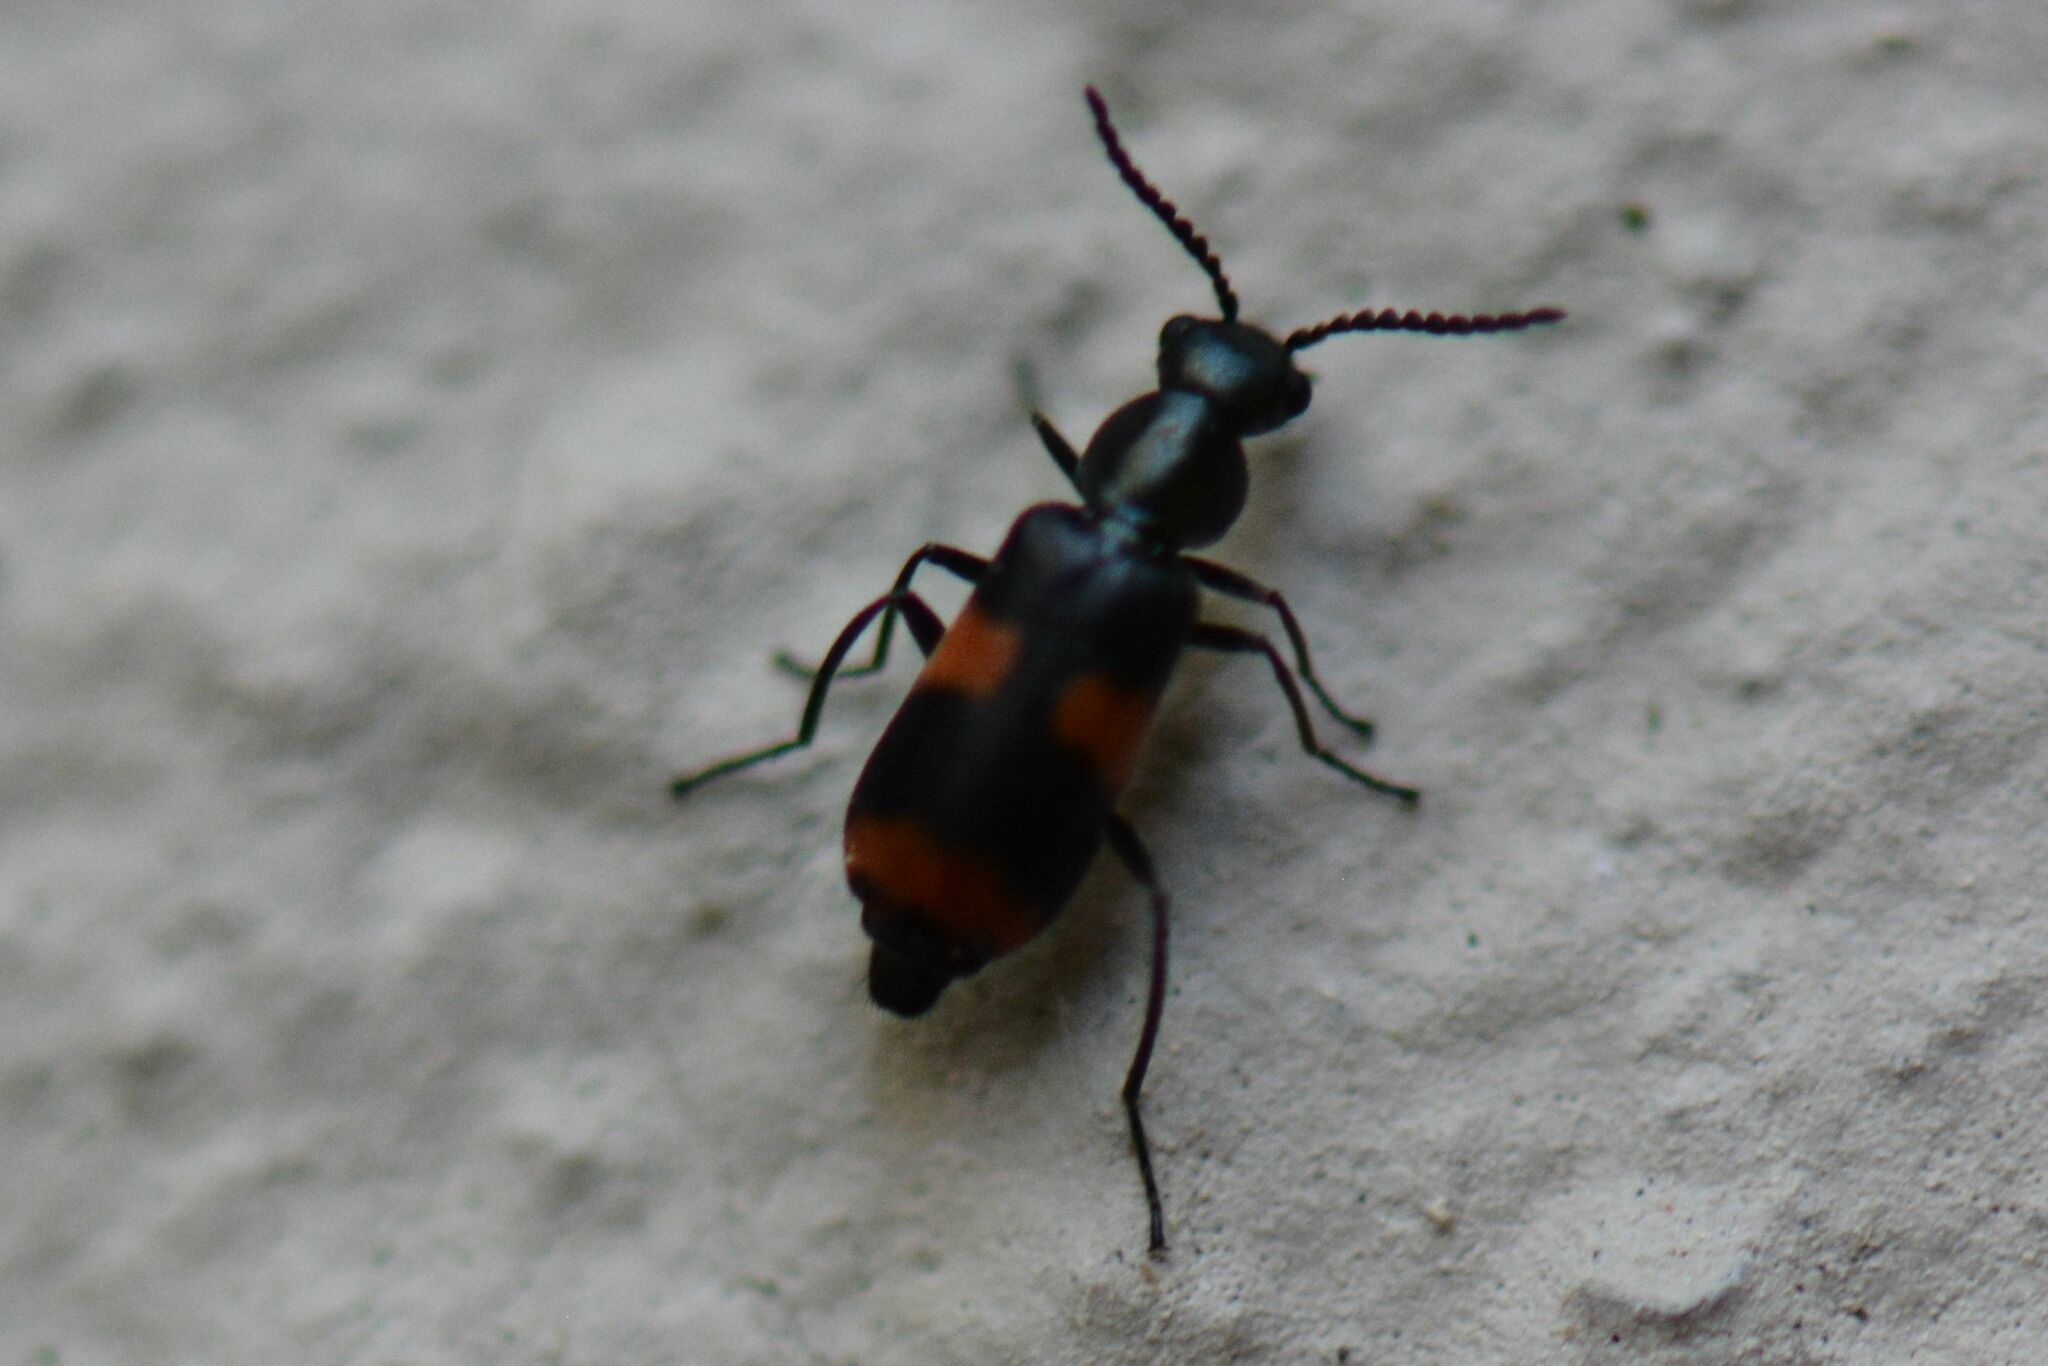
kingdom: Animalia
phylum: Arthropoda
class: Insecta
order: Coleoptera
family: Melyridae
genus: Anthocomus
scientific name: Anthocomus fasciatus
